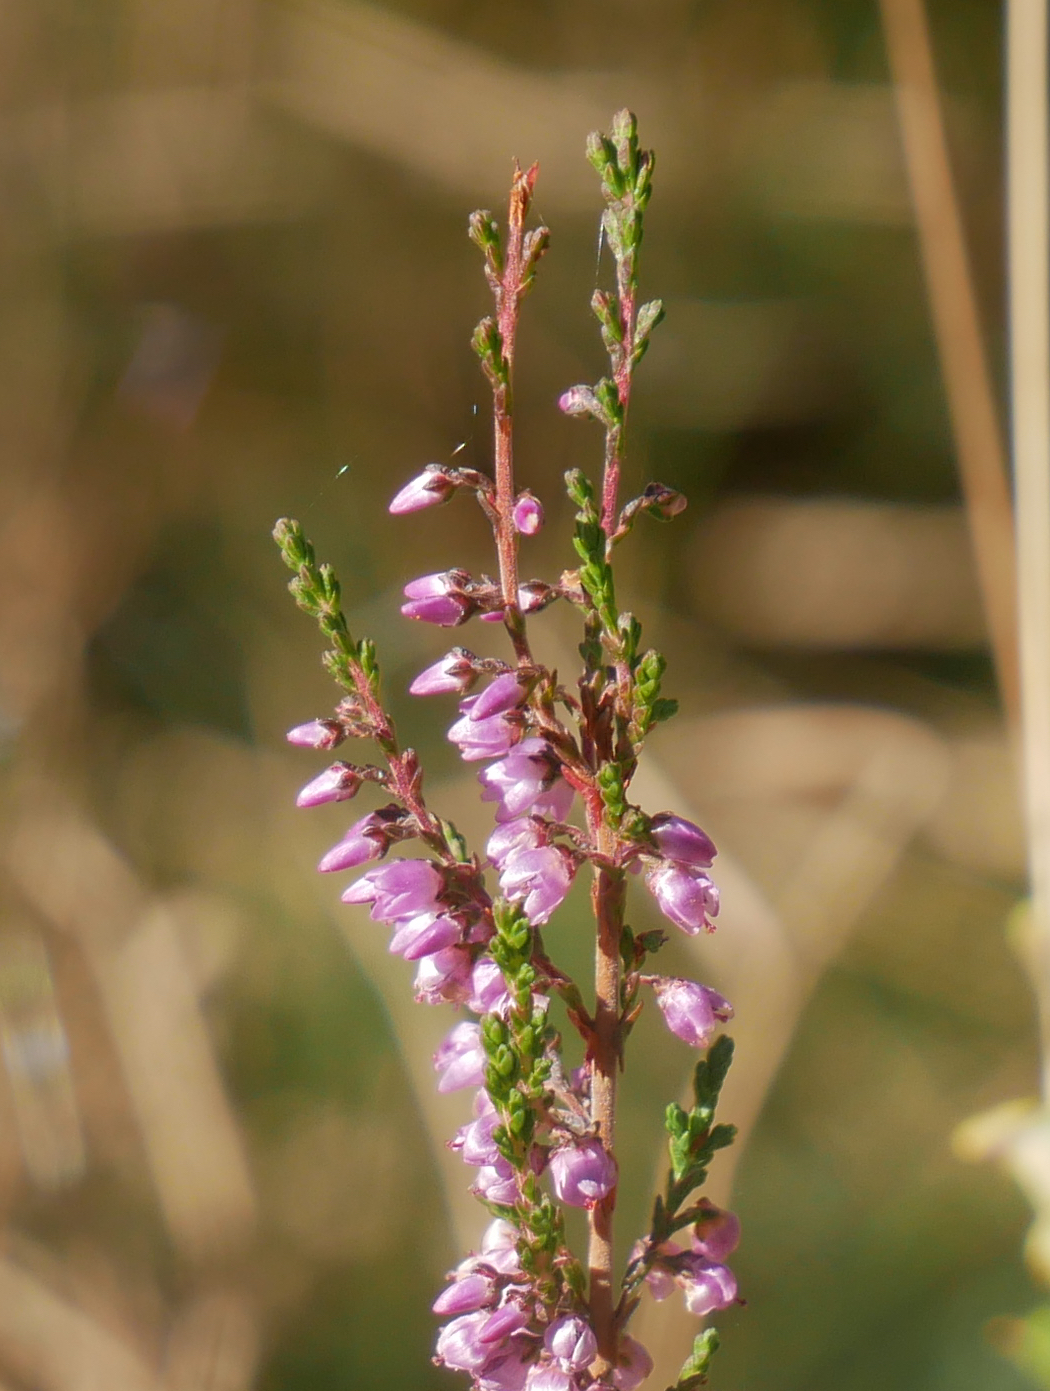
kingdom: Plantae
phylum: Tracheophyta
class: Magnoliopsida
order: Ericales
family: Ericaceae
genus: Calluna
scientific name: Calluna vulgaris
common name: Heather
